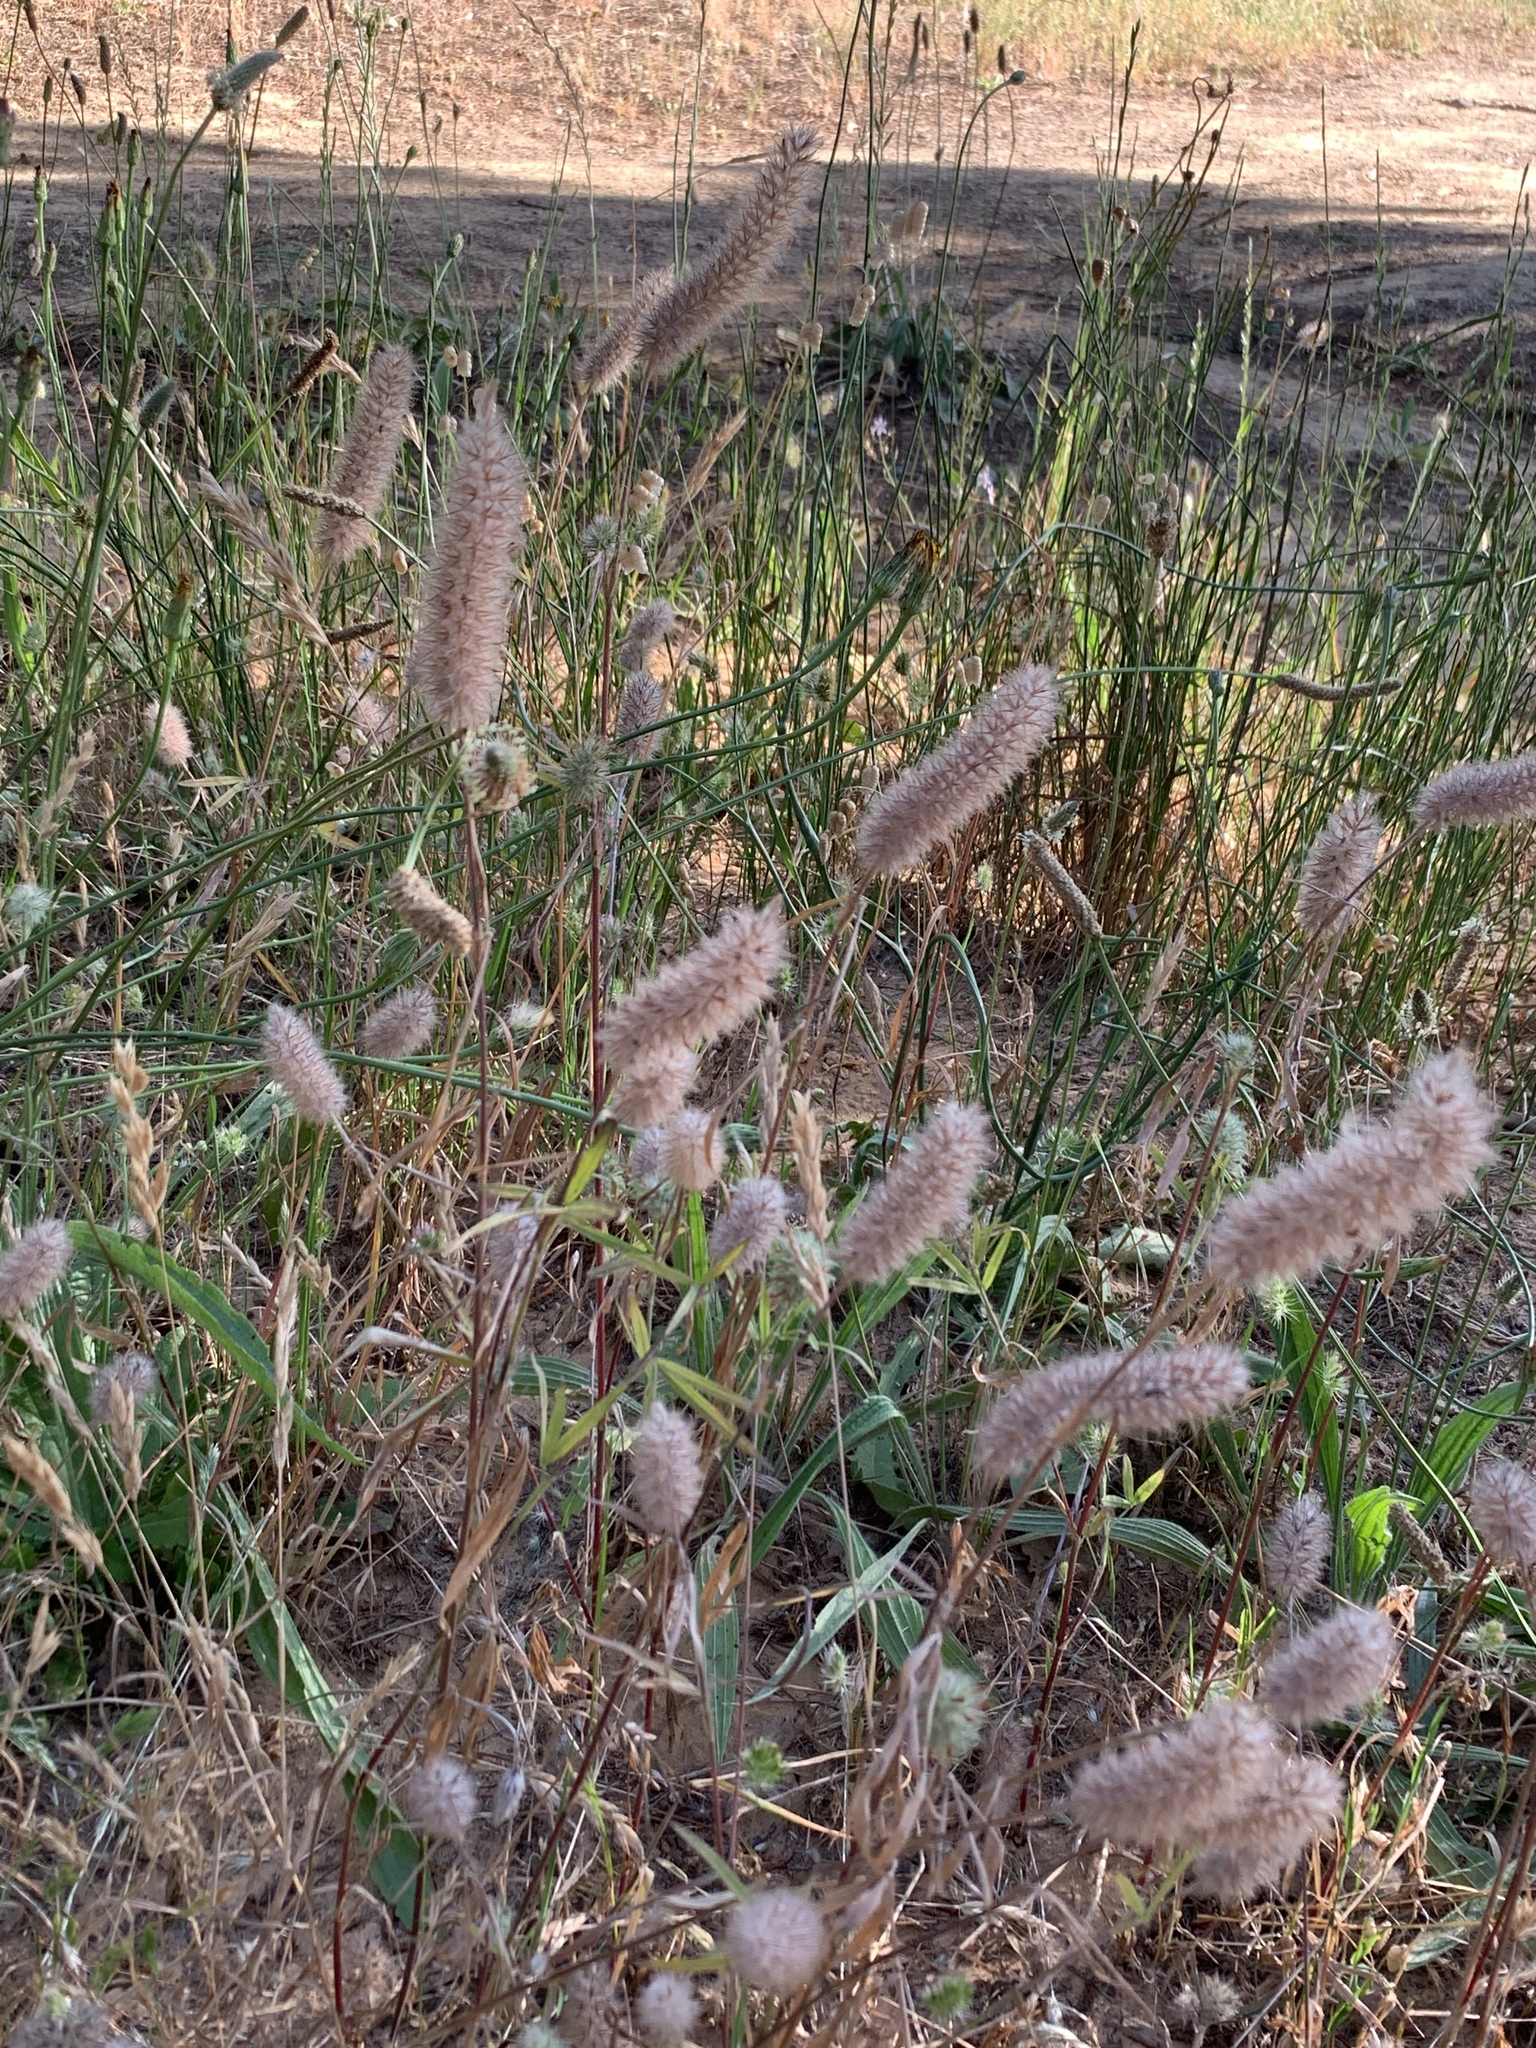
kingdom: Plantae
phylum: Tracheophyta
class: Magnoliopsida
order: Fabales
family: Fabaceae
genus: Trifolium
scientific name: Trifolium angustifolium
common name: Narrow clover
